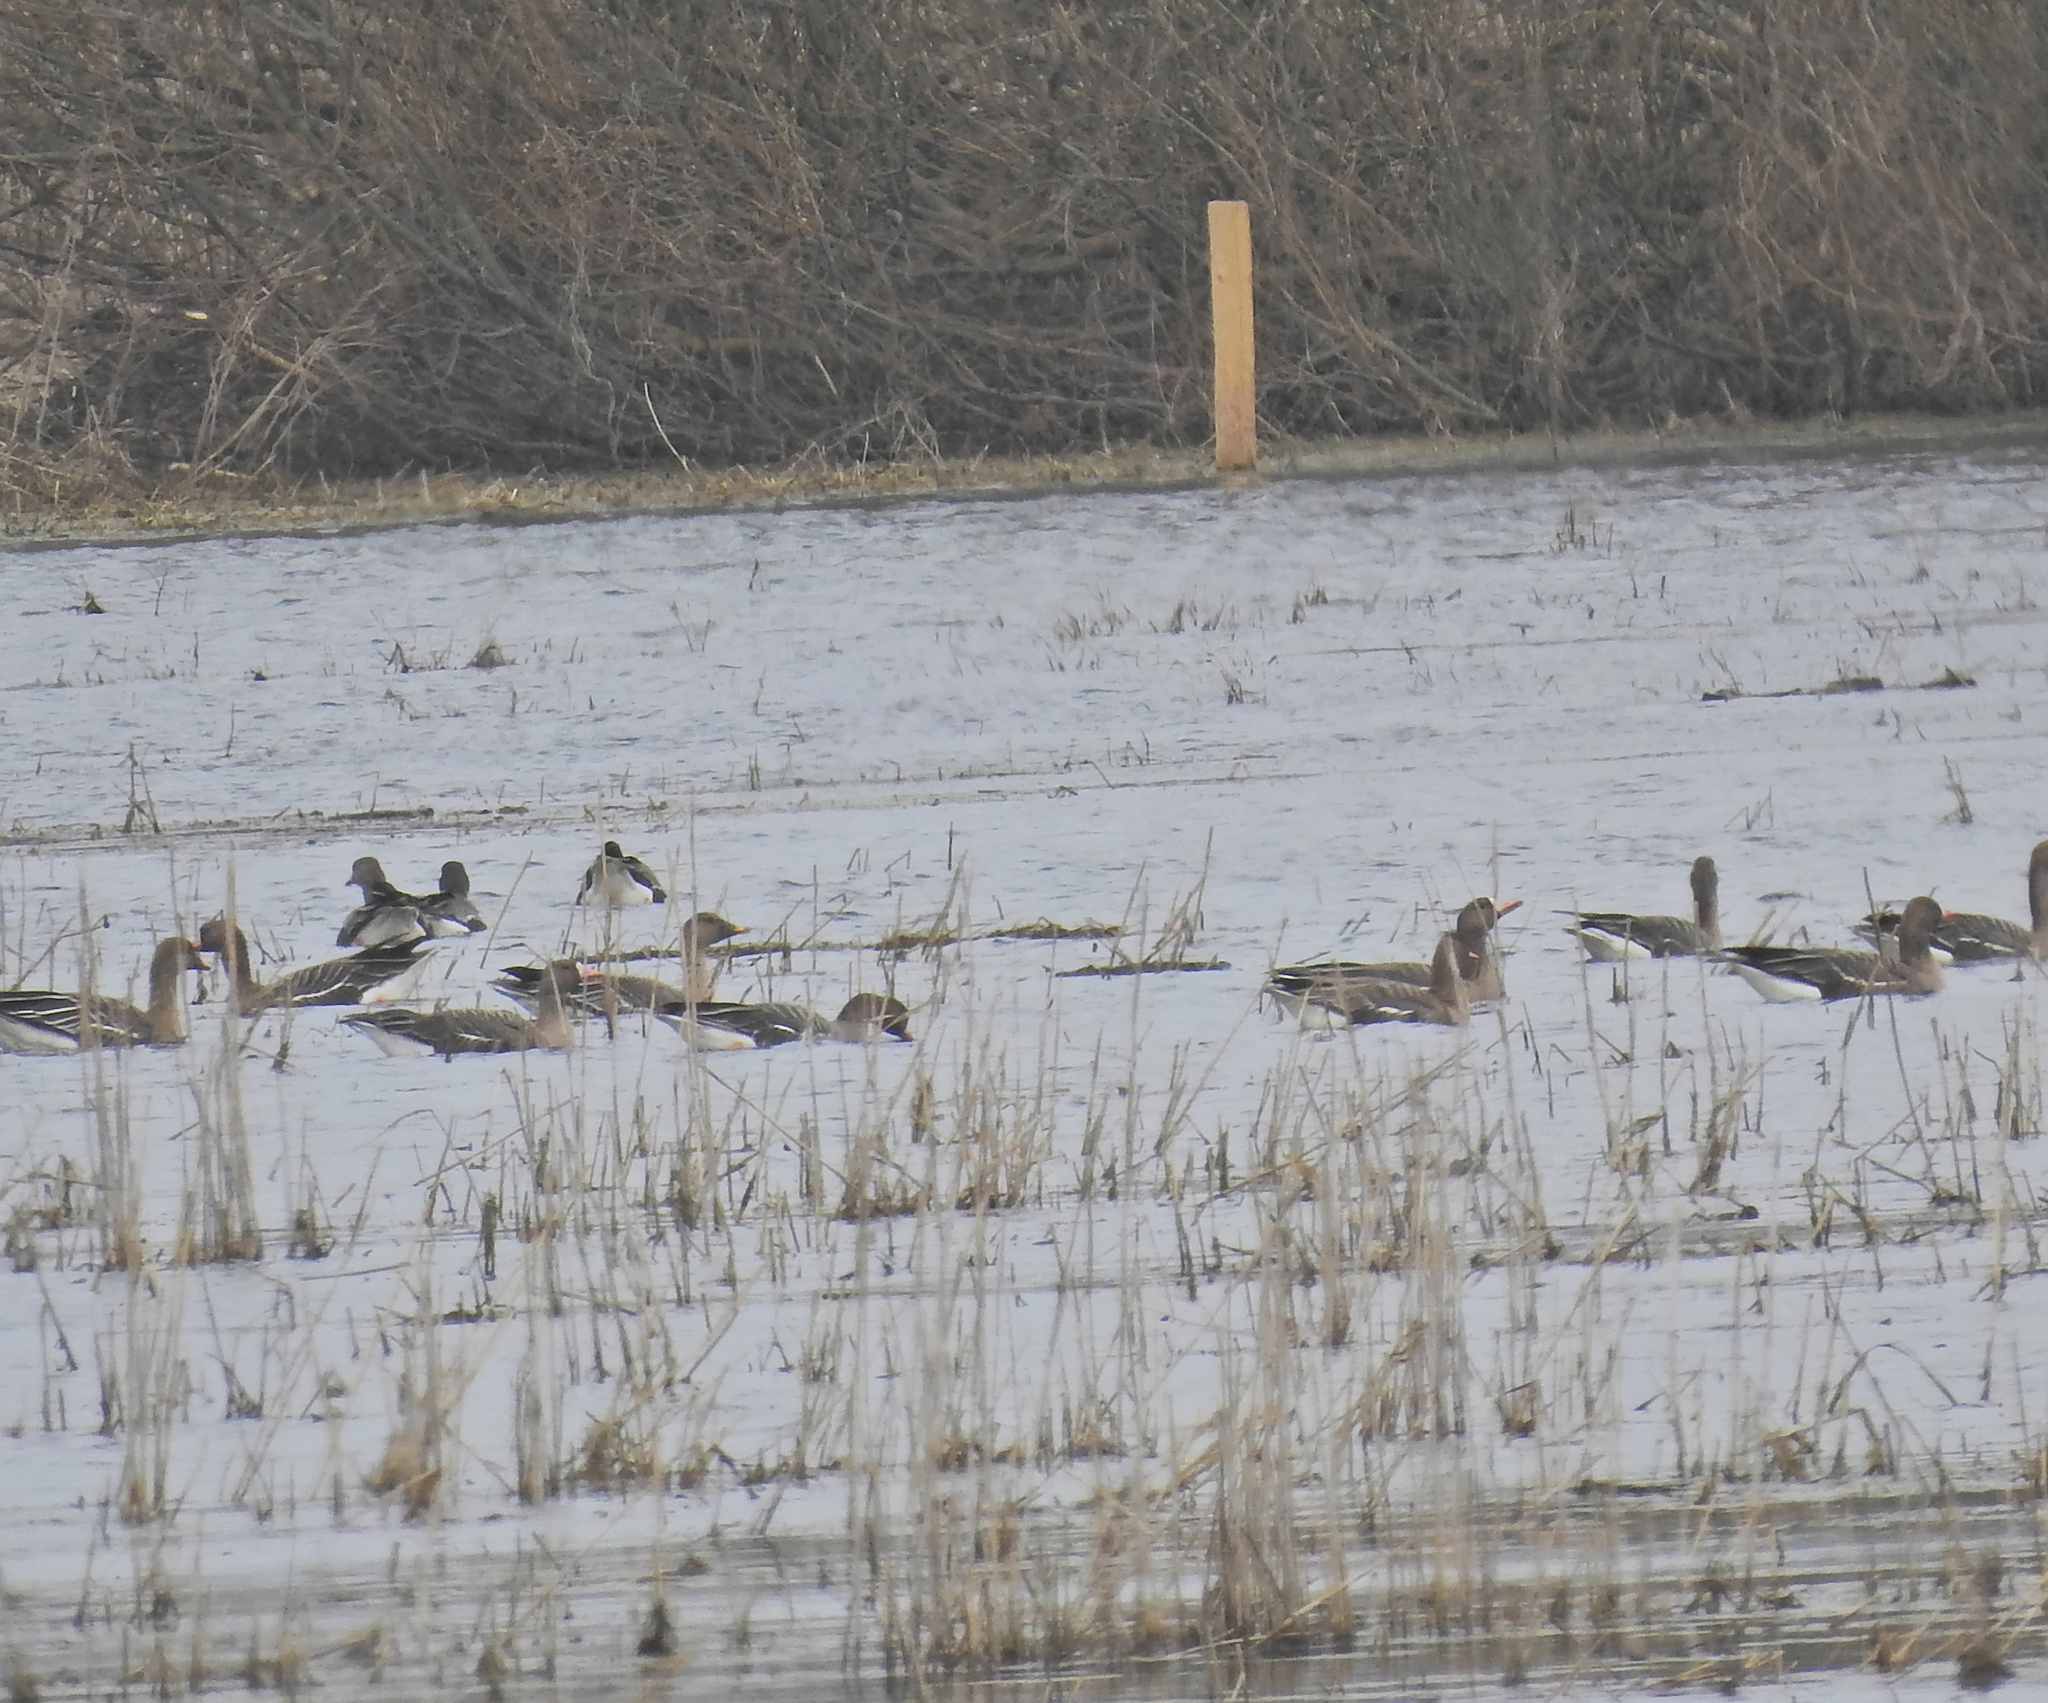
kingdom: Animalia
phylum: Chordata
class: Aves
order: Anseriformes
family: Anatidae
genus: Anser
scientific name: Anser albifrons
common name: Greater white-fronted goose
